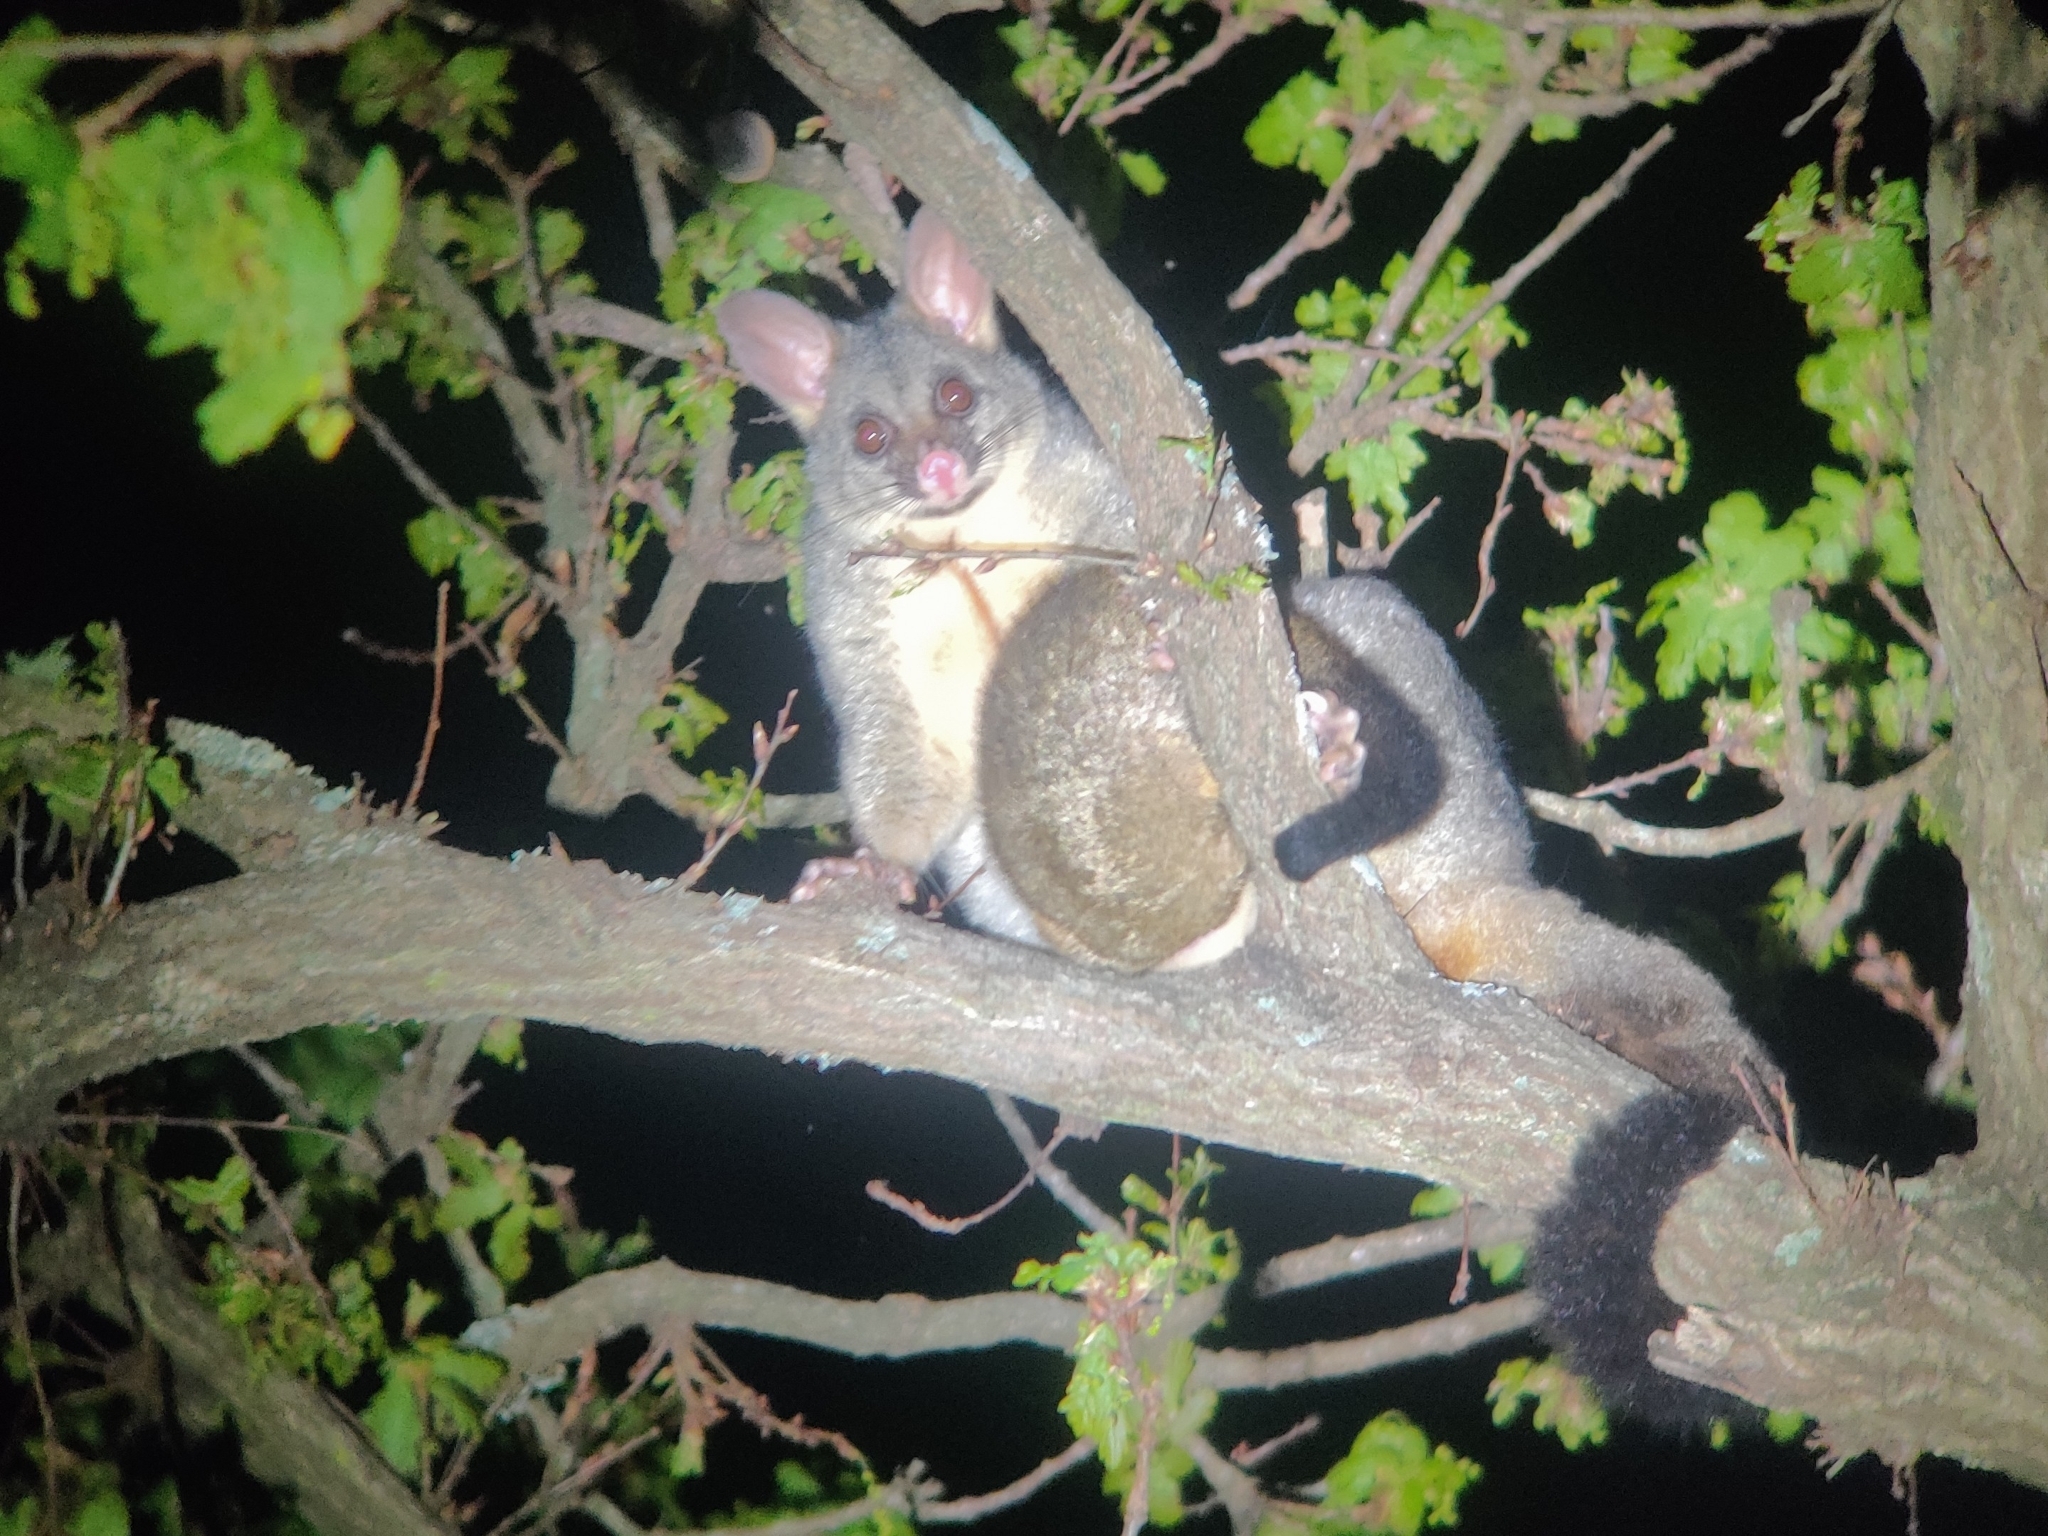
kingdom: Animalia
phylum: Chordata
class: Mammalia
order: Diprotodontia
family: Phalangeridae
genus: Trichosurus
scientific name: Trichosurus vulpecula
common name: Common brushtail
